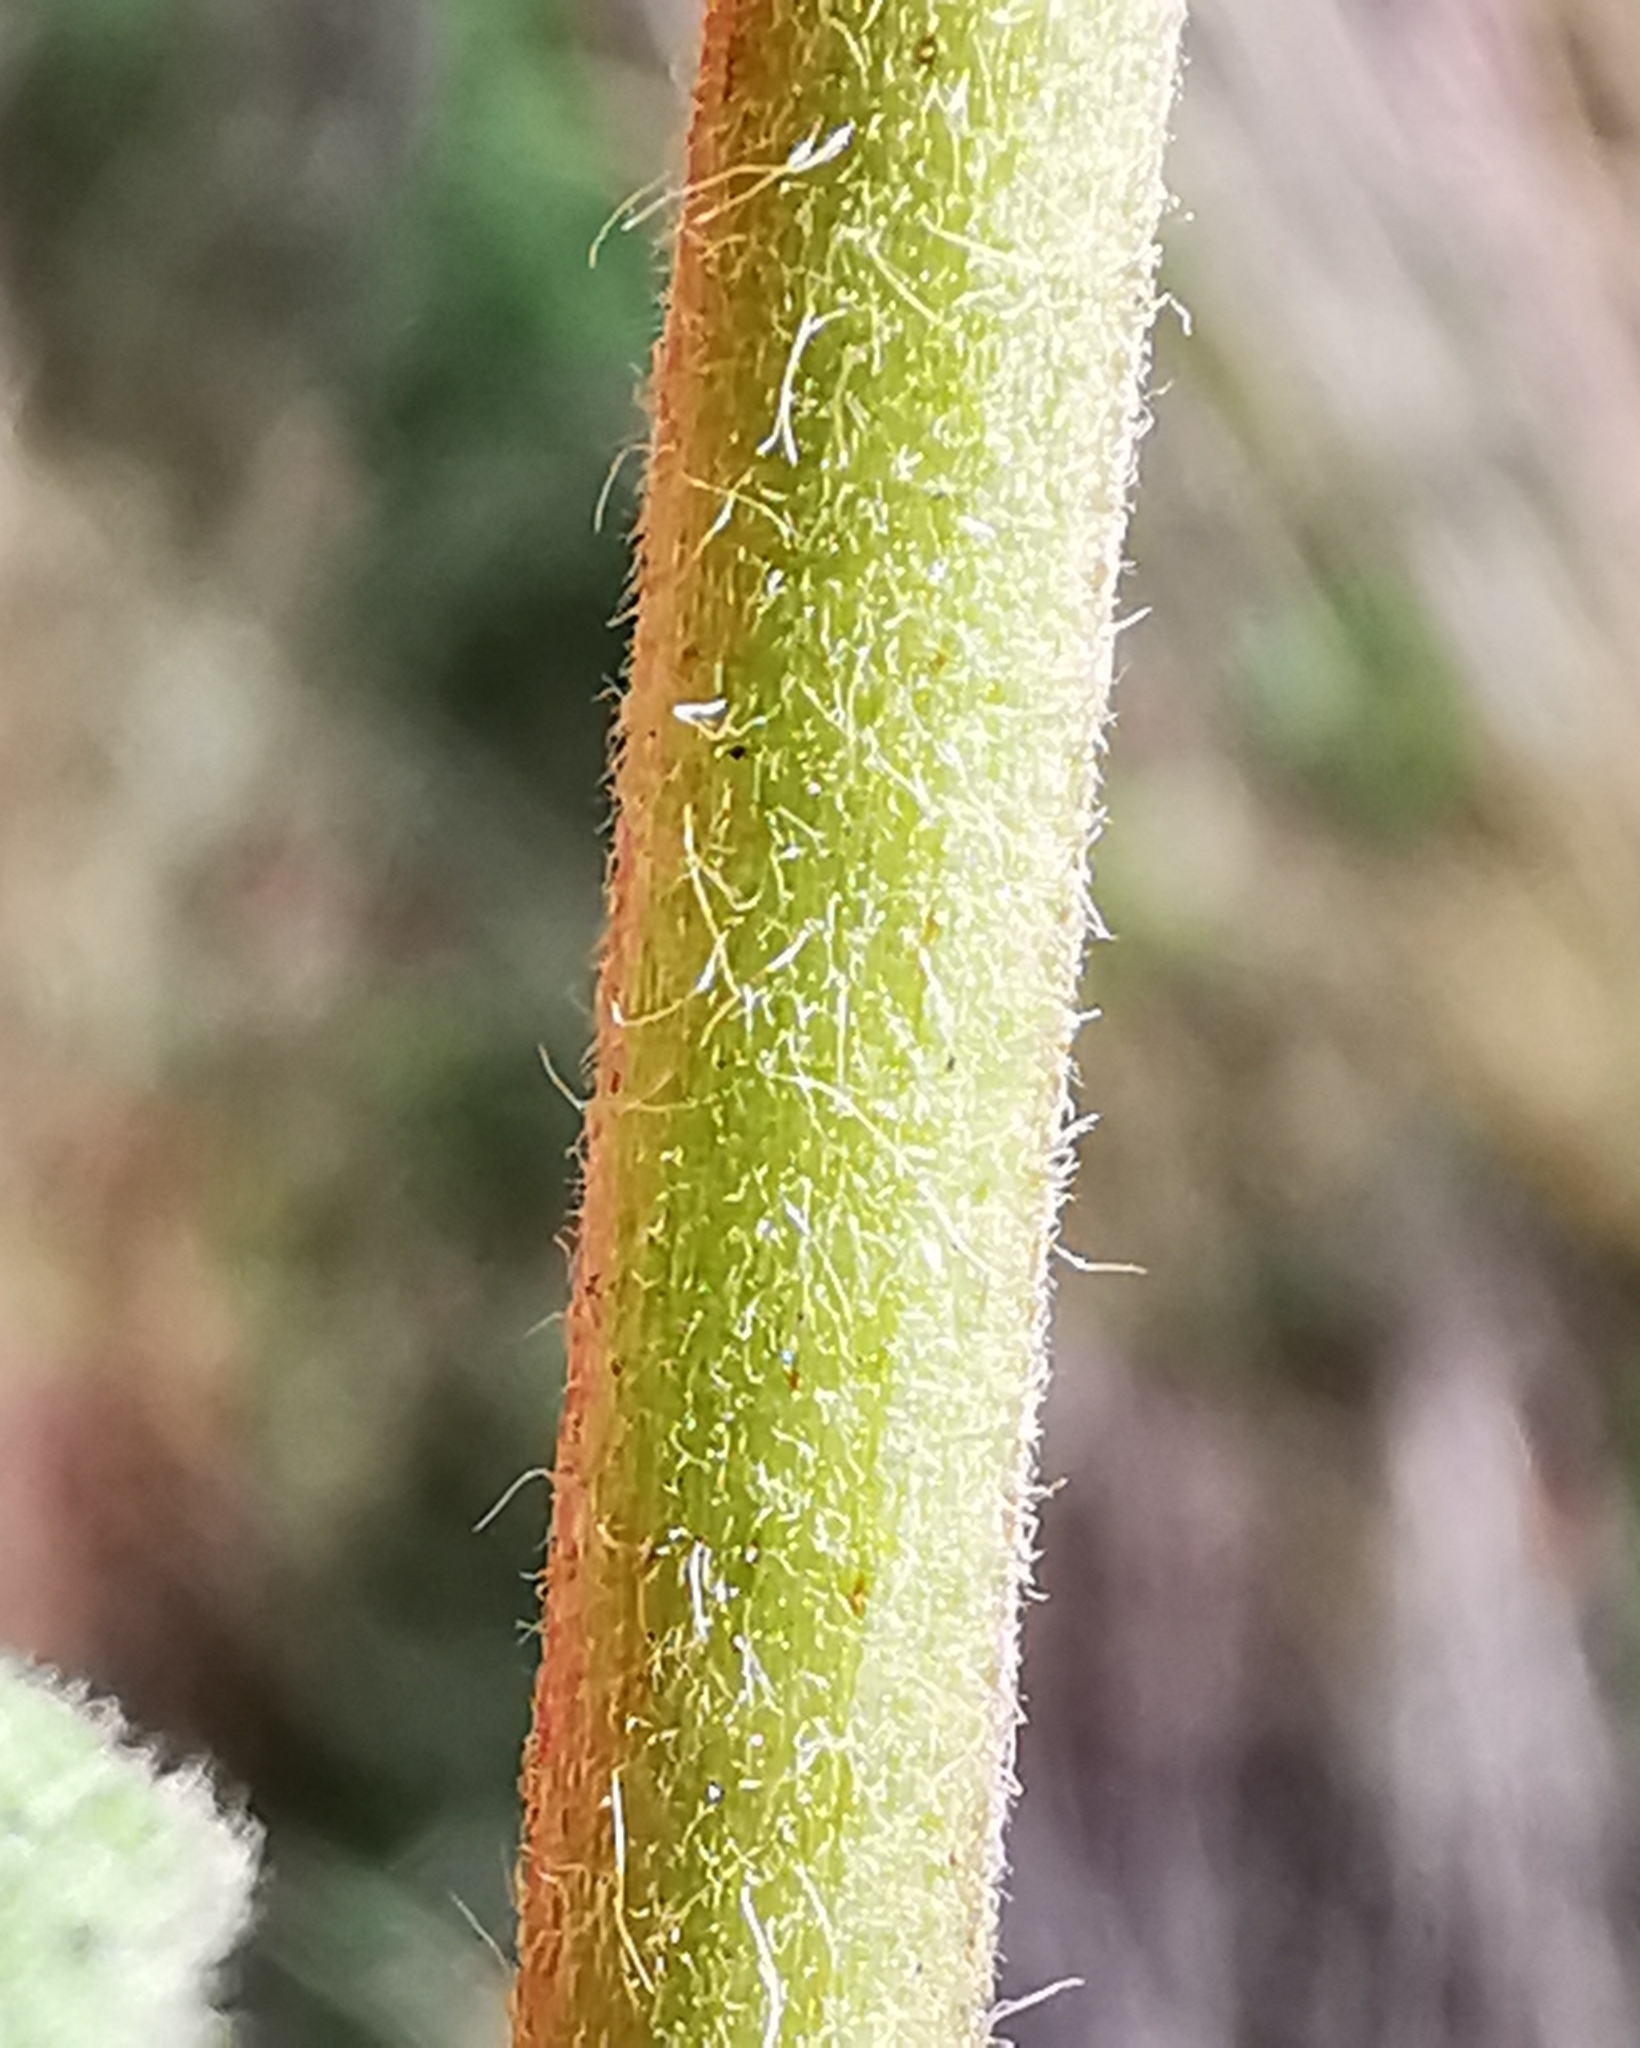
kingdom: Plantae
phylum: Tracheophyta
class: Magnoliopsida
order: Rosales
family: Rosaceae
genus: Agrimonia
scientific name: Agrimonia eupatoria
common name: Agrimony
